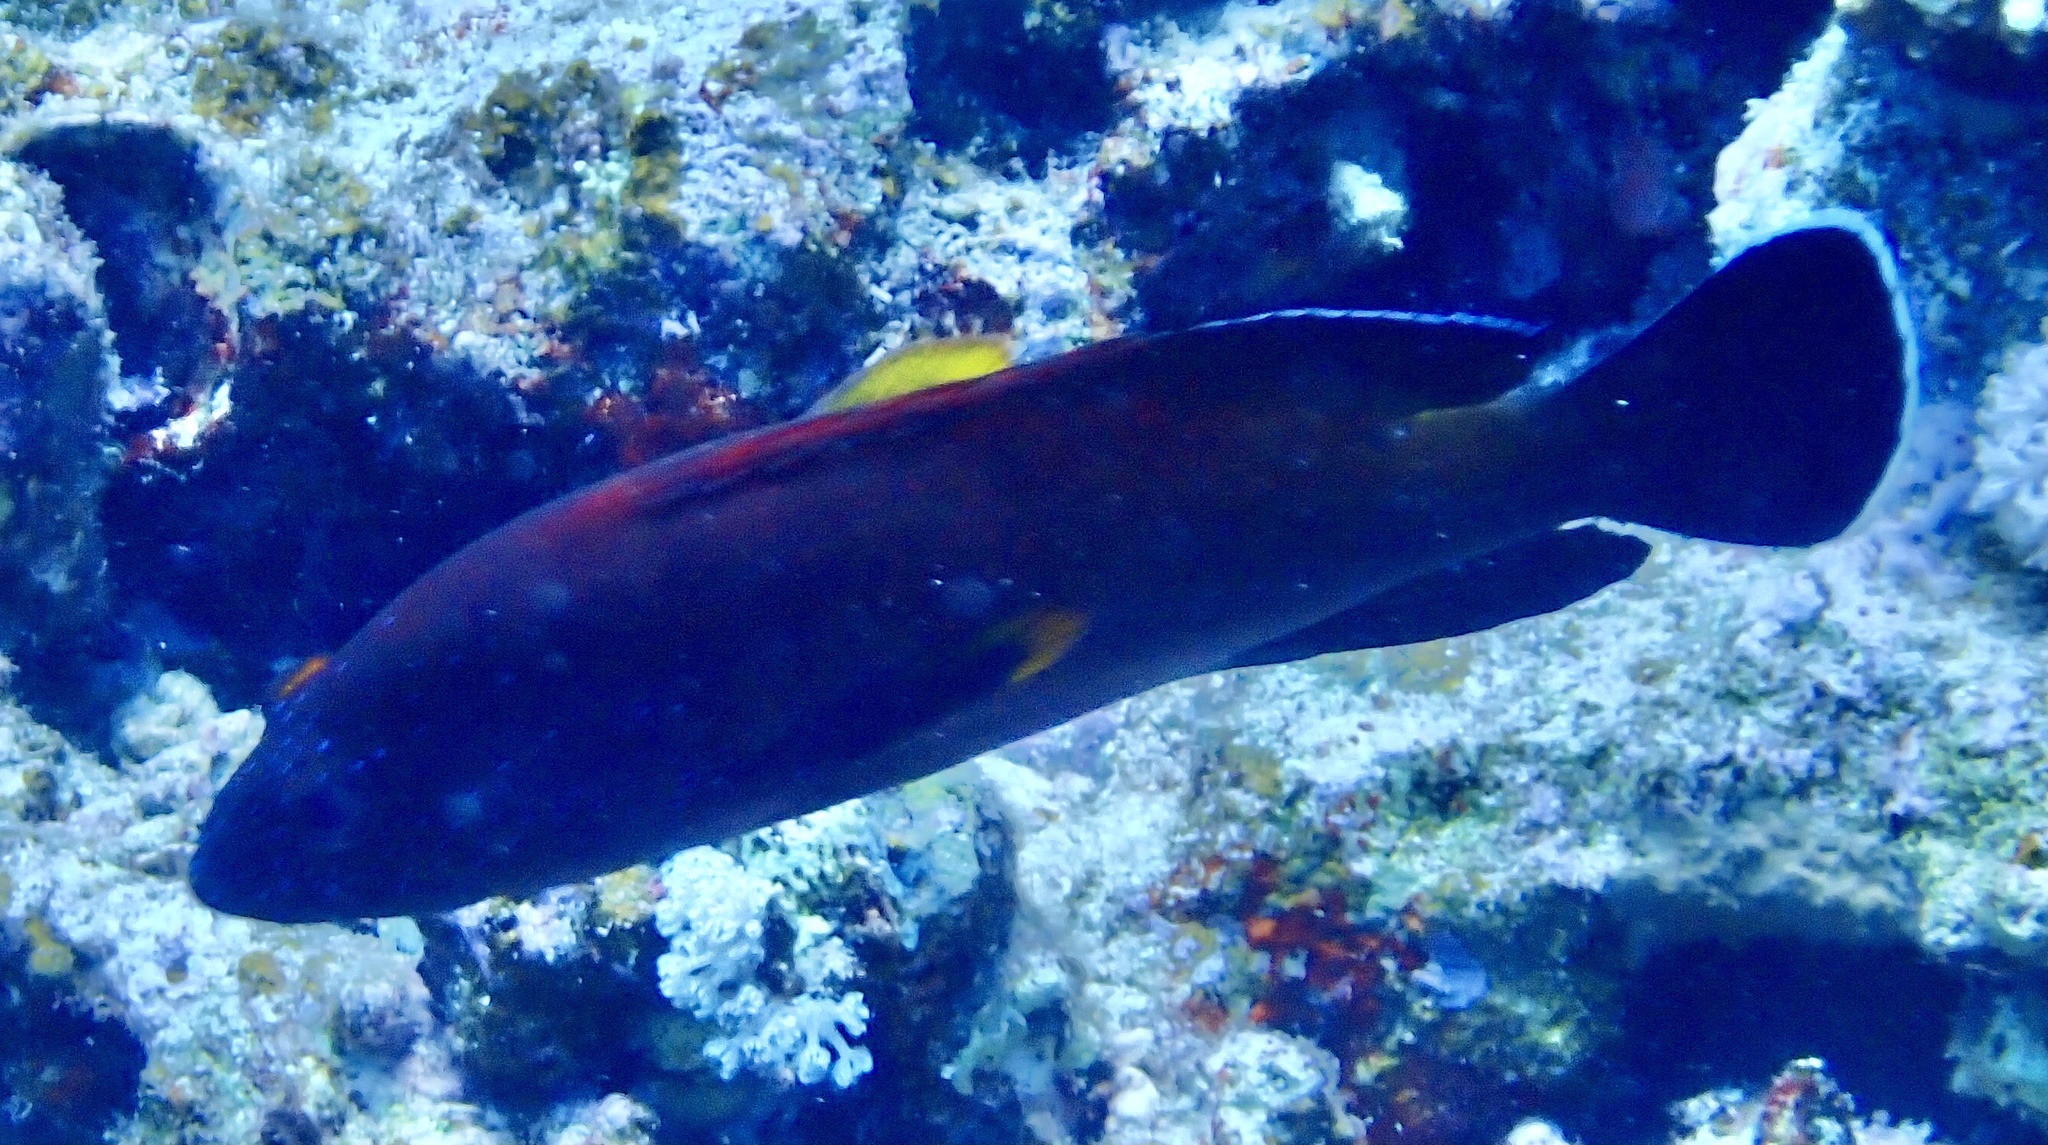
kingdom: Animalia
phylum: Chordata
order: Perciformes
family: Serranidae
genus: Cephalopholis
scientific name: Cephalopholis hemistiktos
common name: Halfspotted hind
